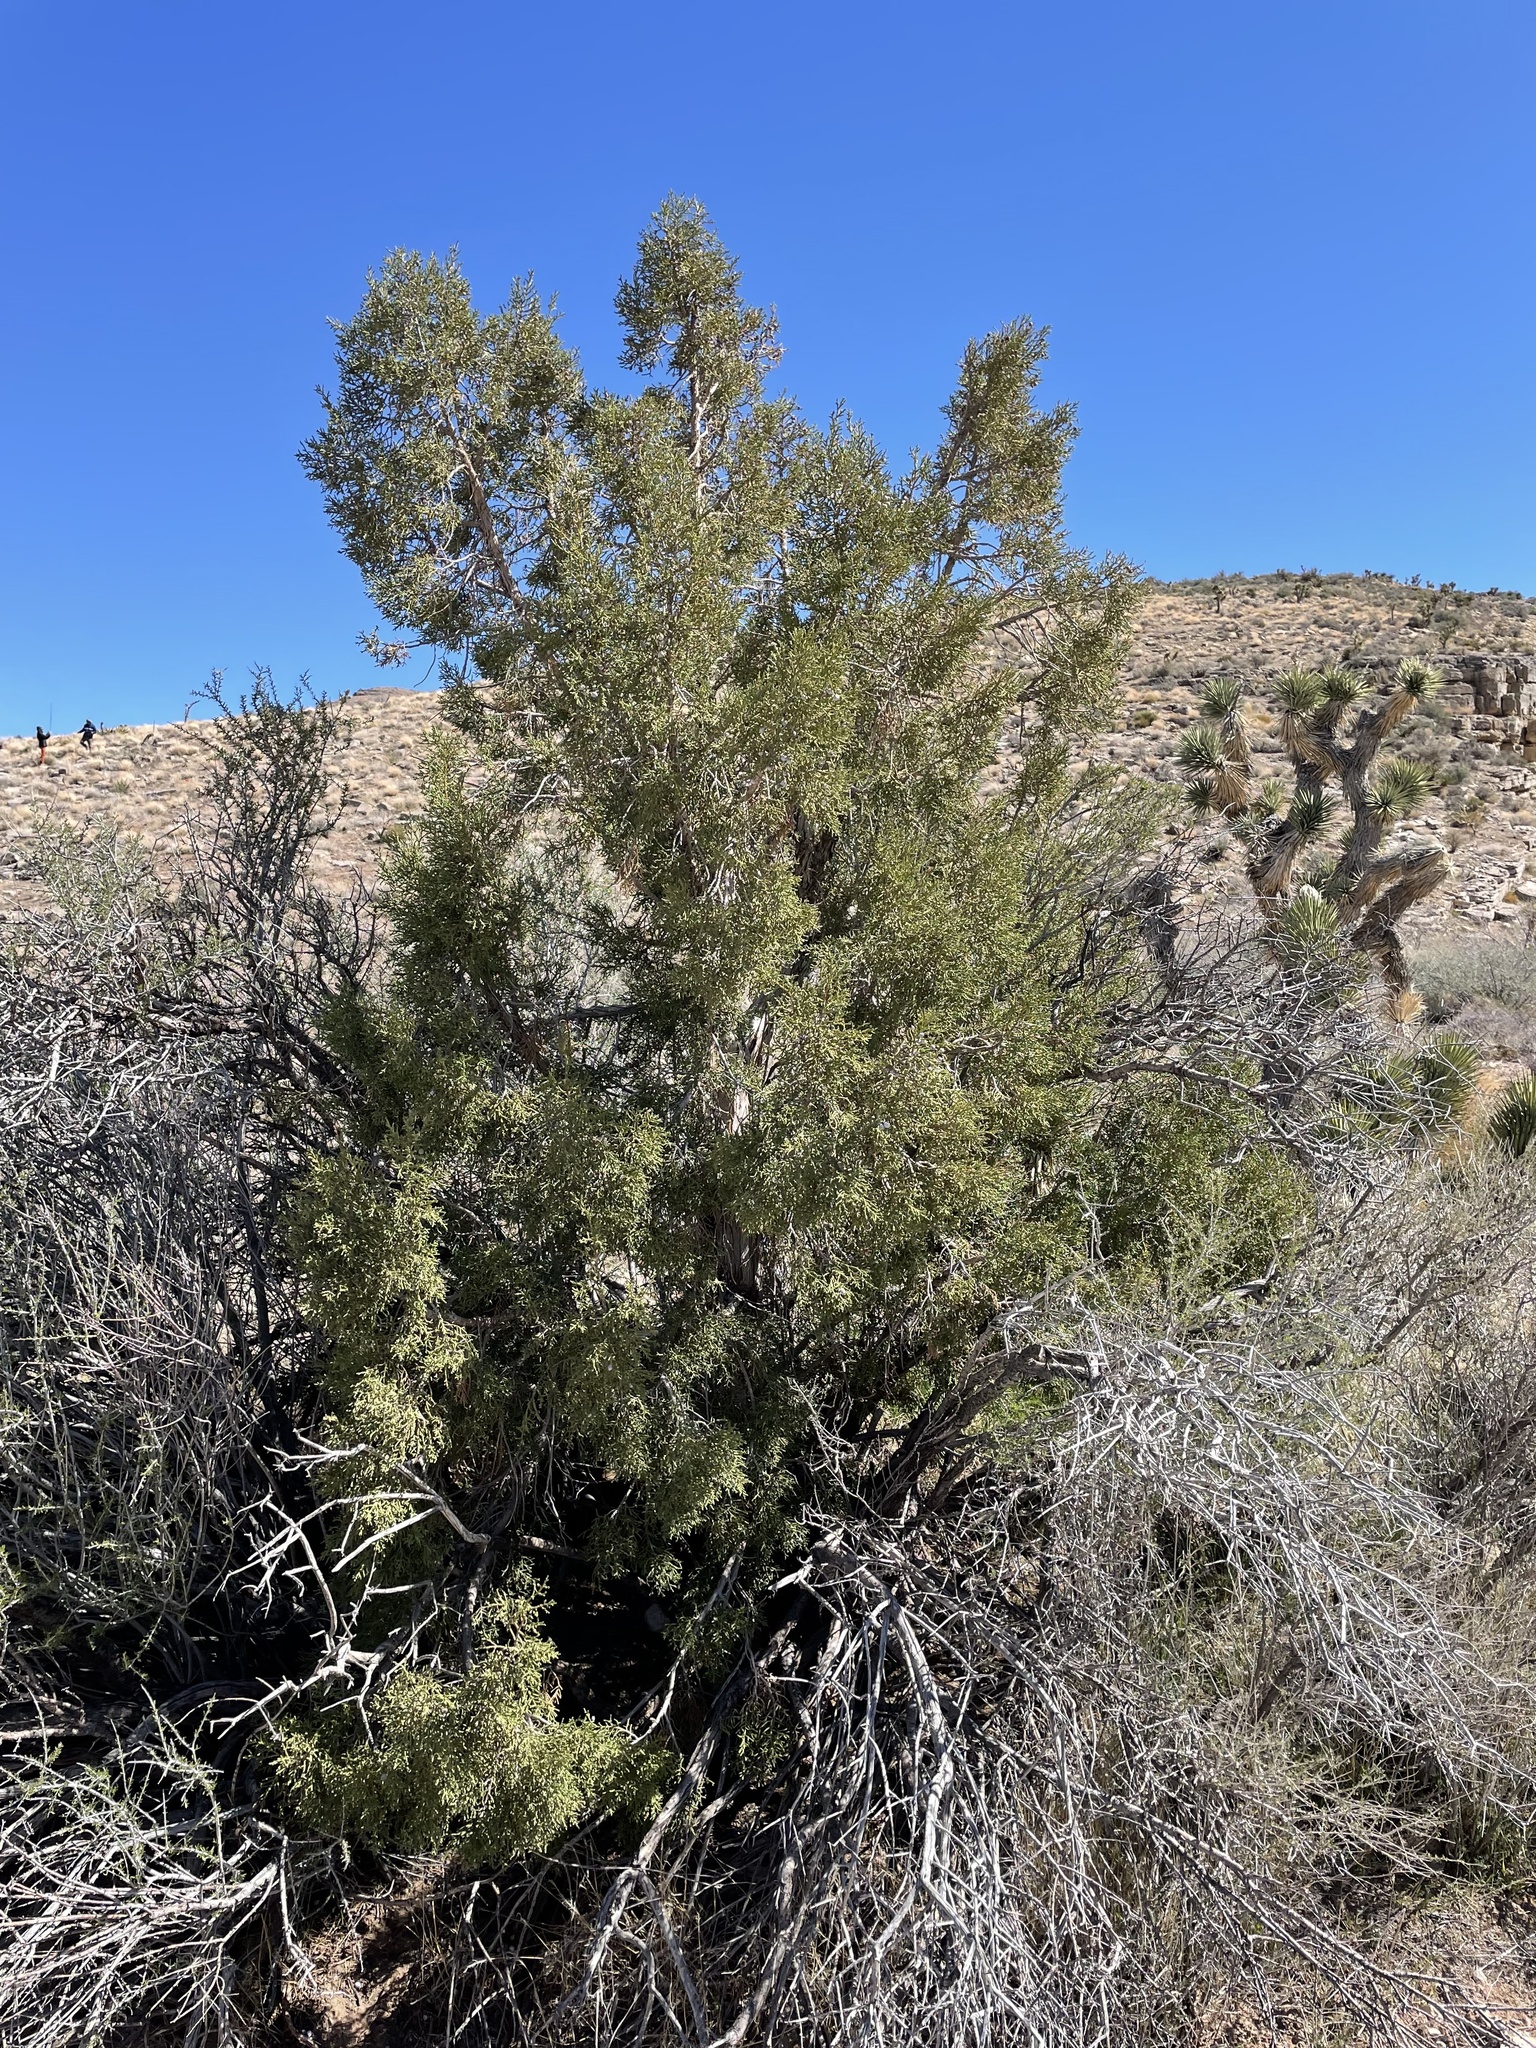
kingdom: Plantae
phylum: Tracheophyta
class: Pinopsida
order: Pinales
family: Cupressaceae
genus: Juniperus
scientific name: Juniperus osteosperma
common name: Utah juniper
